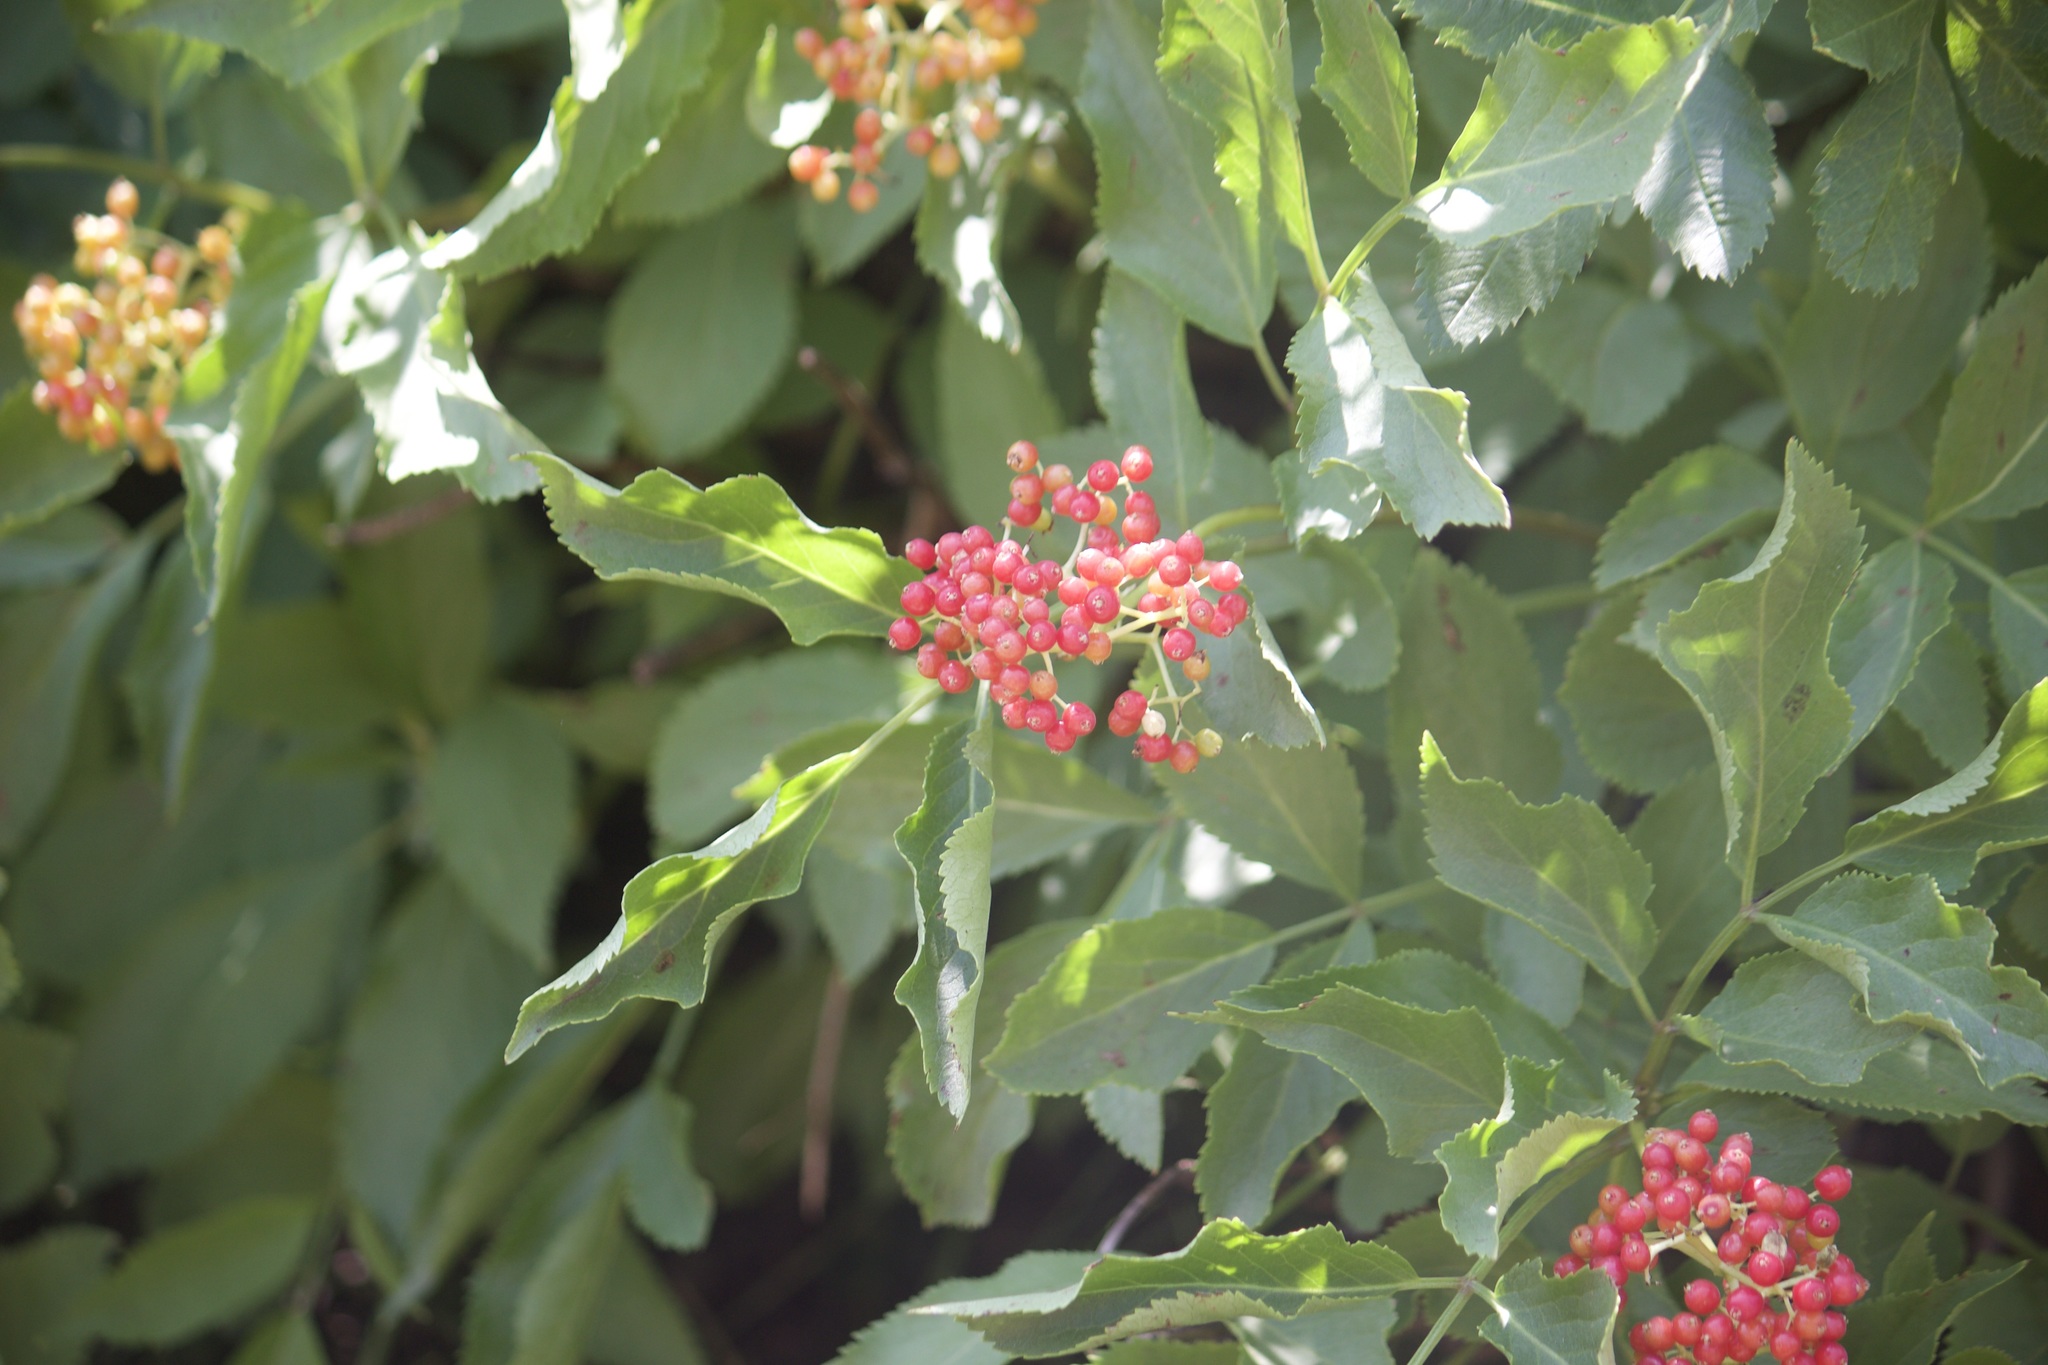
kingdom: Plantae
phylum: Tracheophyta
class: Magnoliopsida
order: Dipsacales
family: Viburnaceae
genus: Sambucus
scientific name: Sambucus racemosa
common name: Red-berried elder
